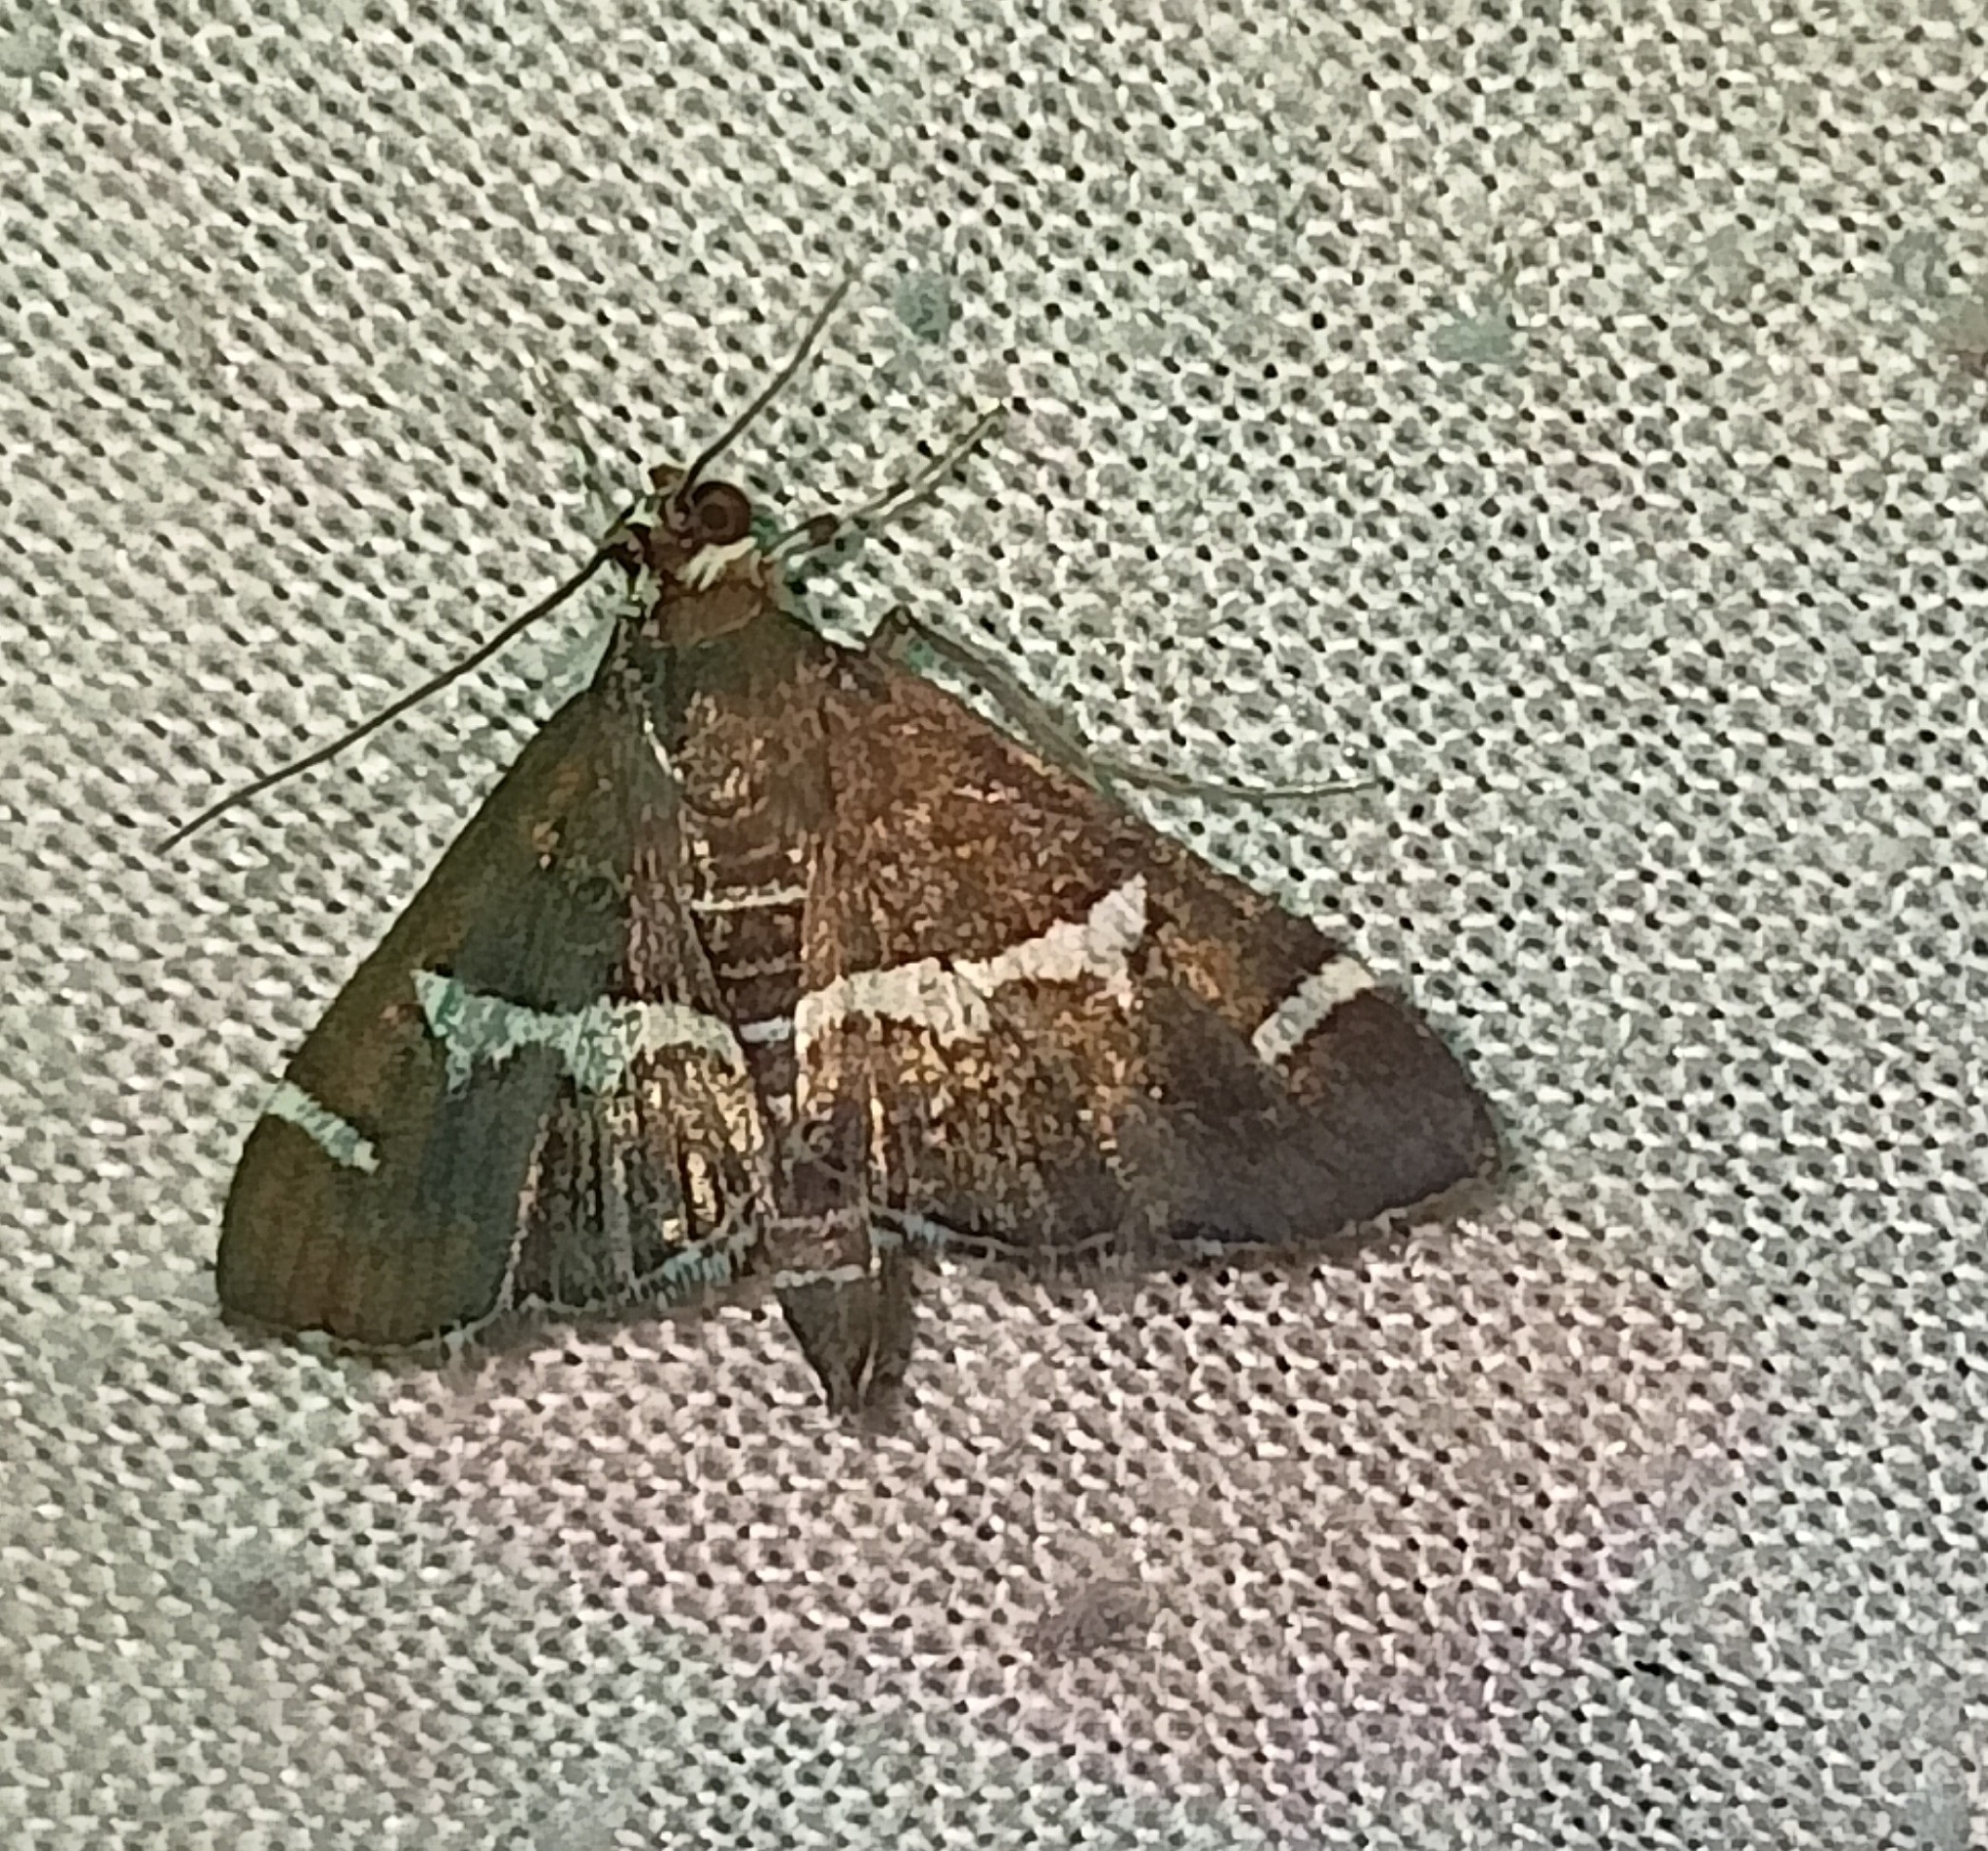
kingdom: Animalia
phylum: Arthropoda
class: Insecta
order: Lepidoptera
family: Crambidae
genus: Spoladea
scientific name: Spoladea recurvalis
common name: Beet webworm moth
